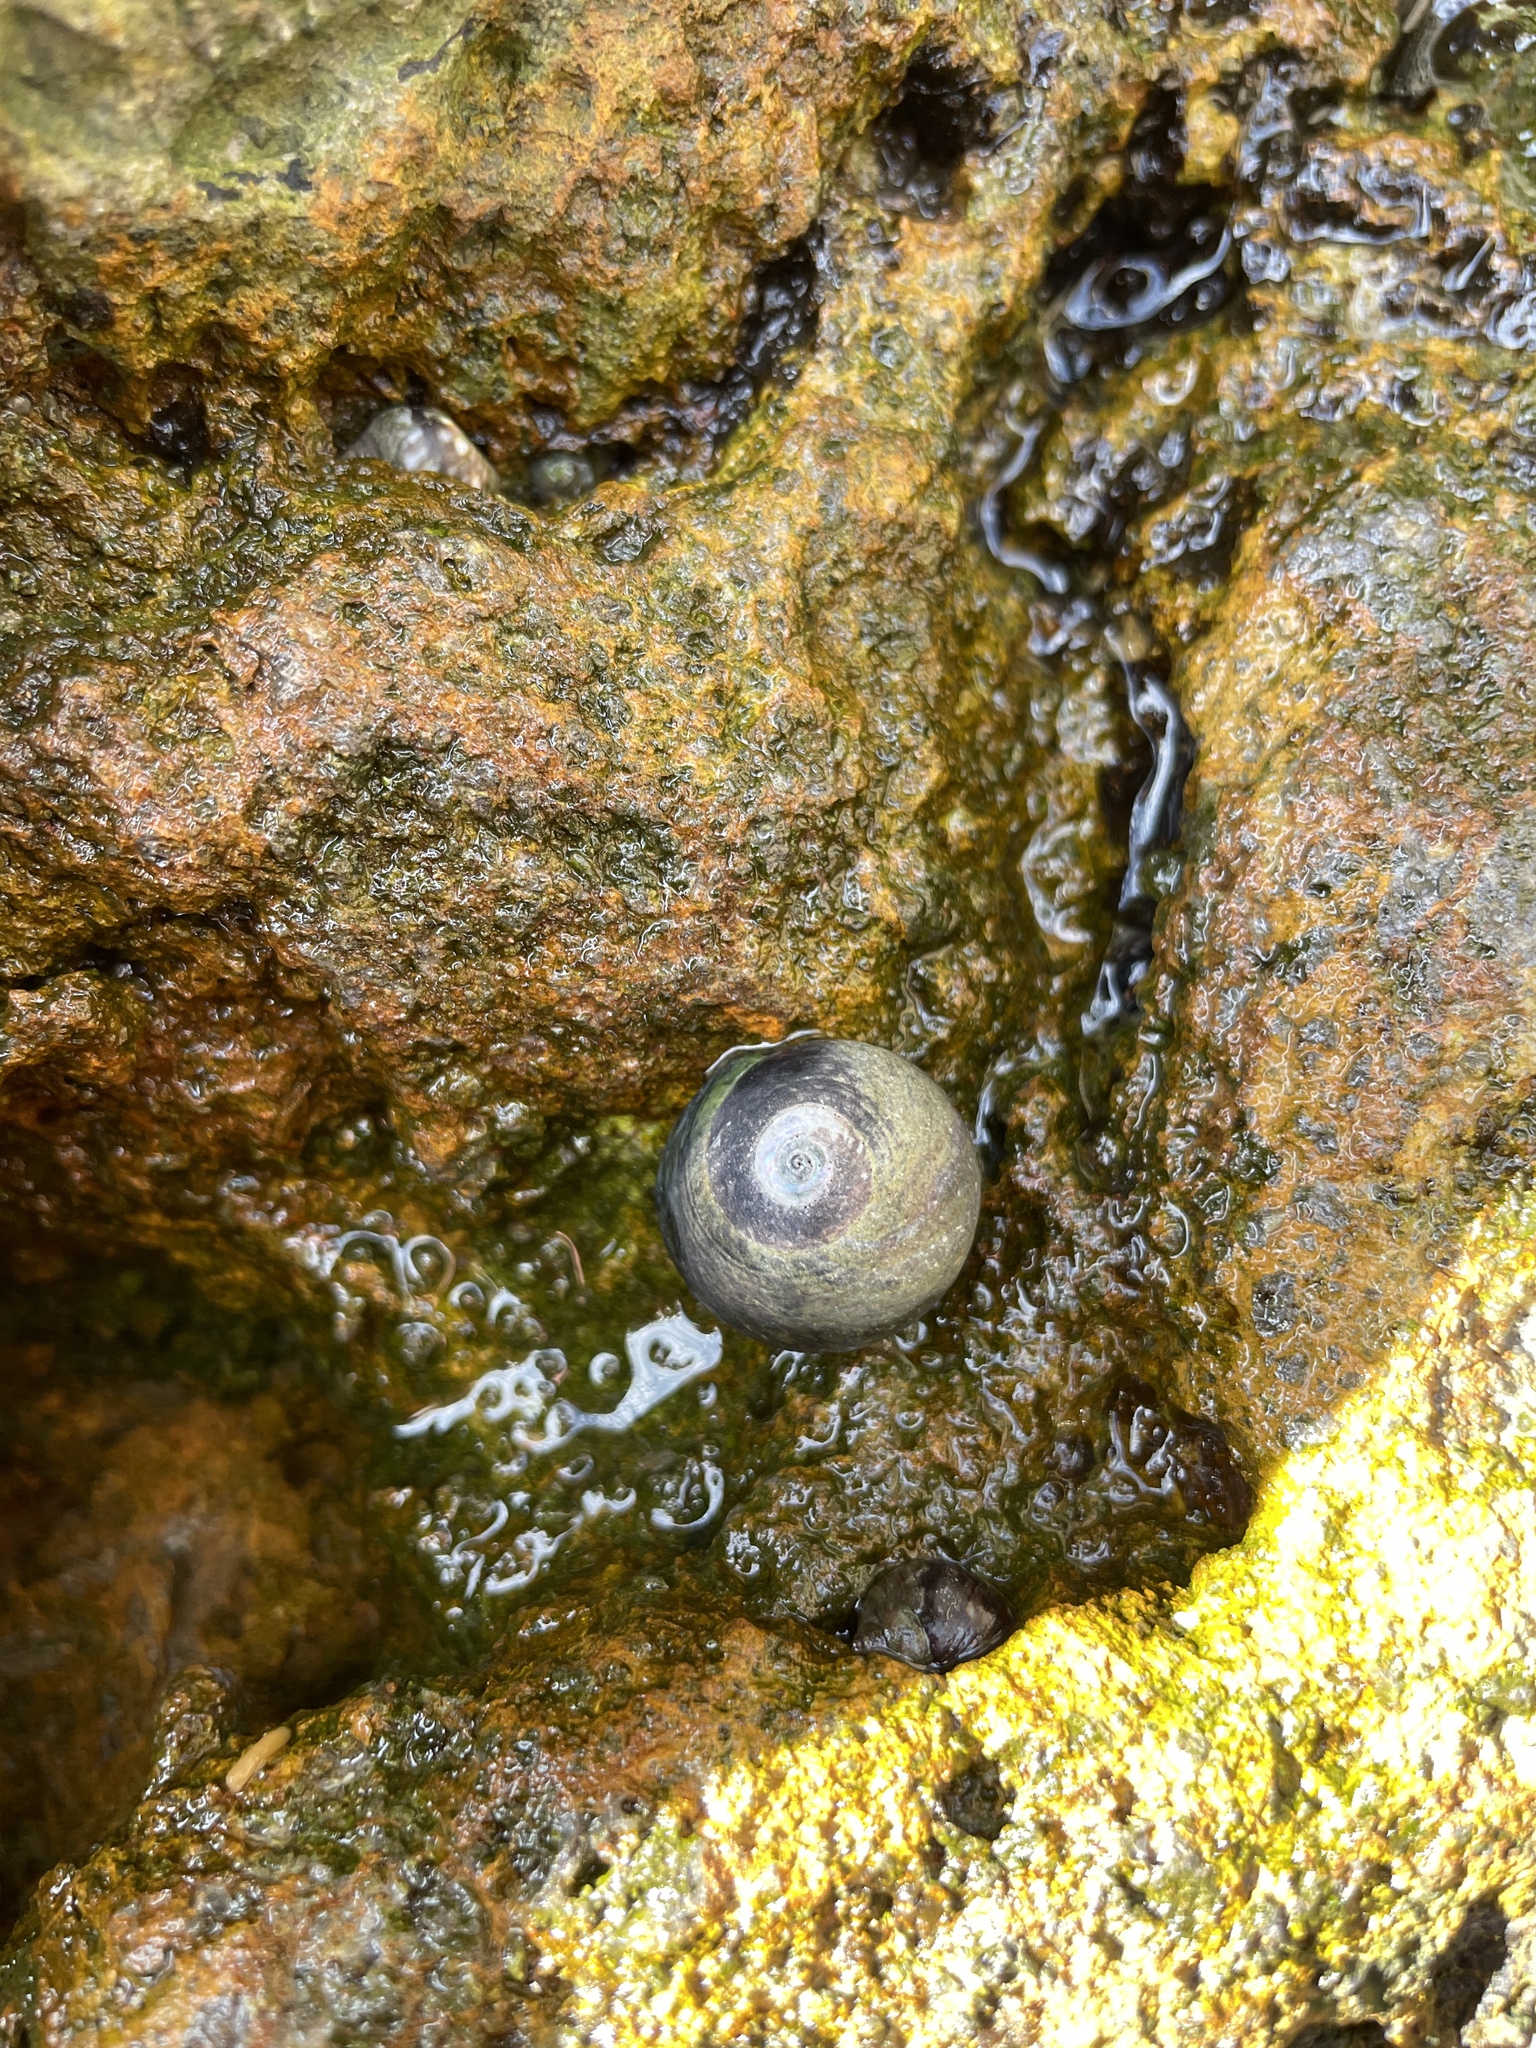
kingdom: Animalia
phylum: Mollusca
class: Gastropoda
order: Trochida
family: Tegulidae
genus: Tegula
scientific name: Tegula funebralis
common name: Black tegula
